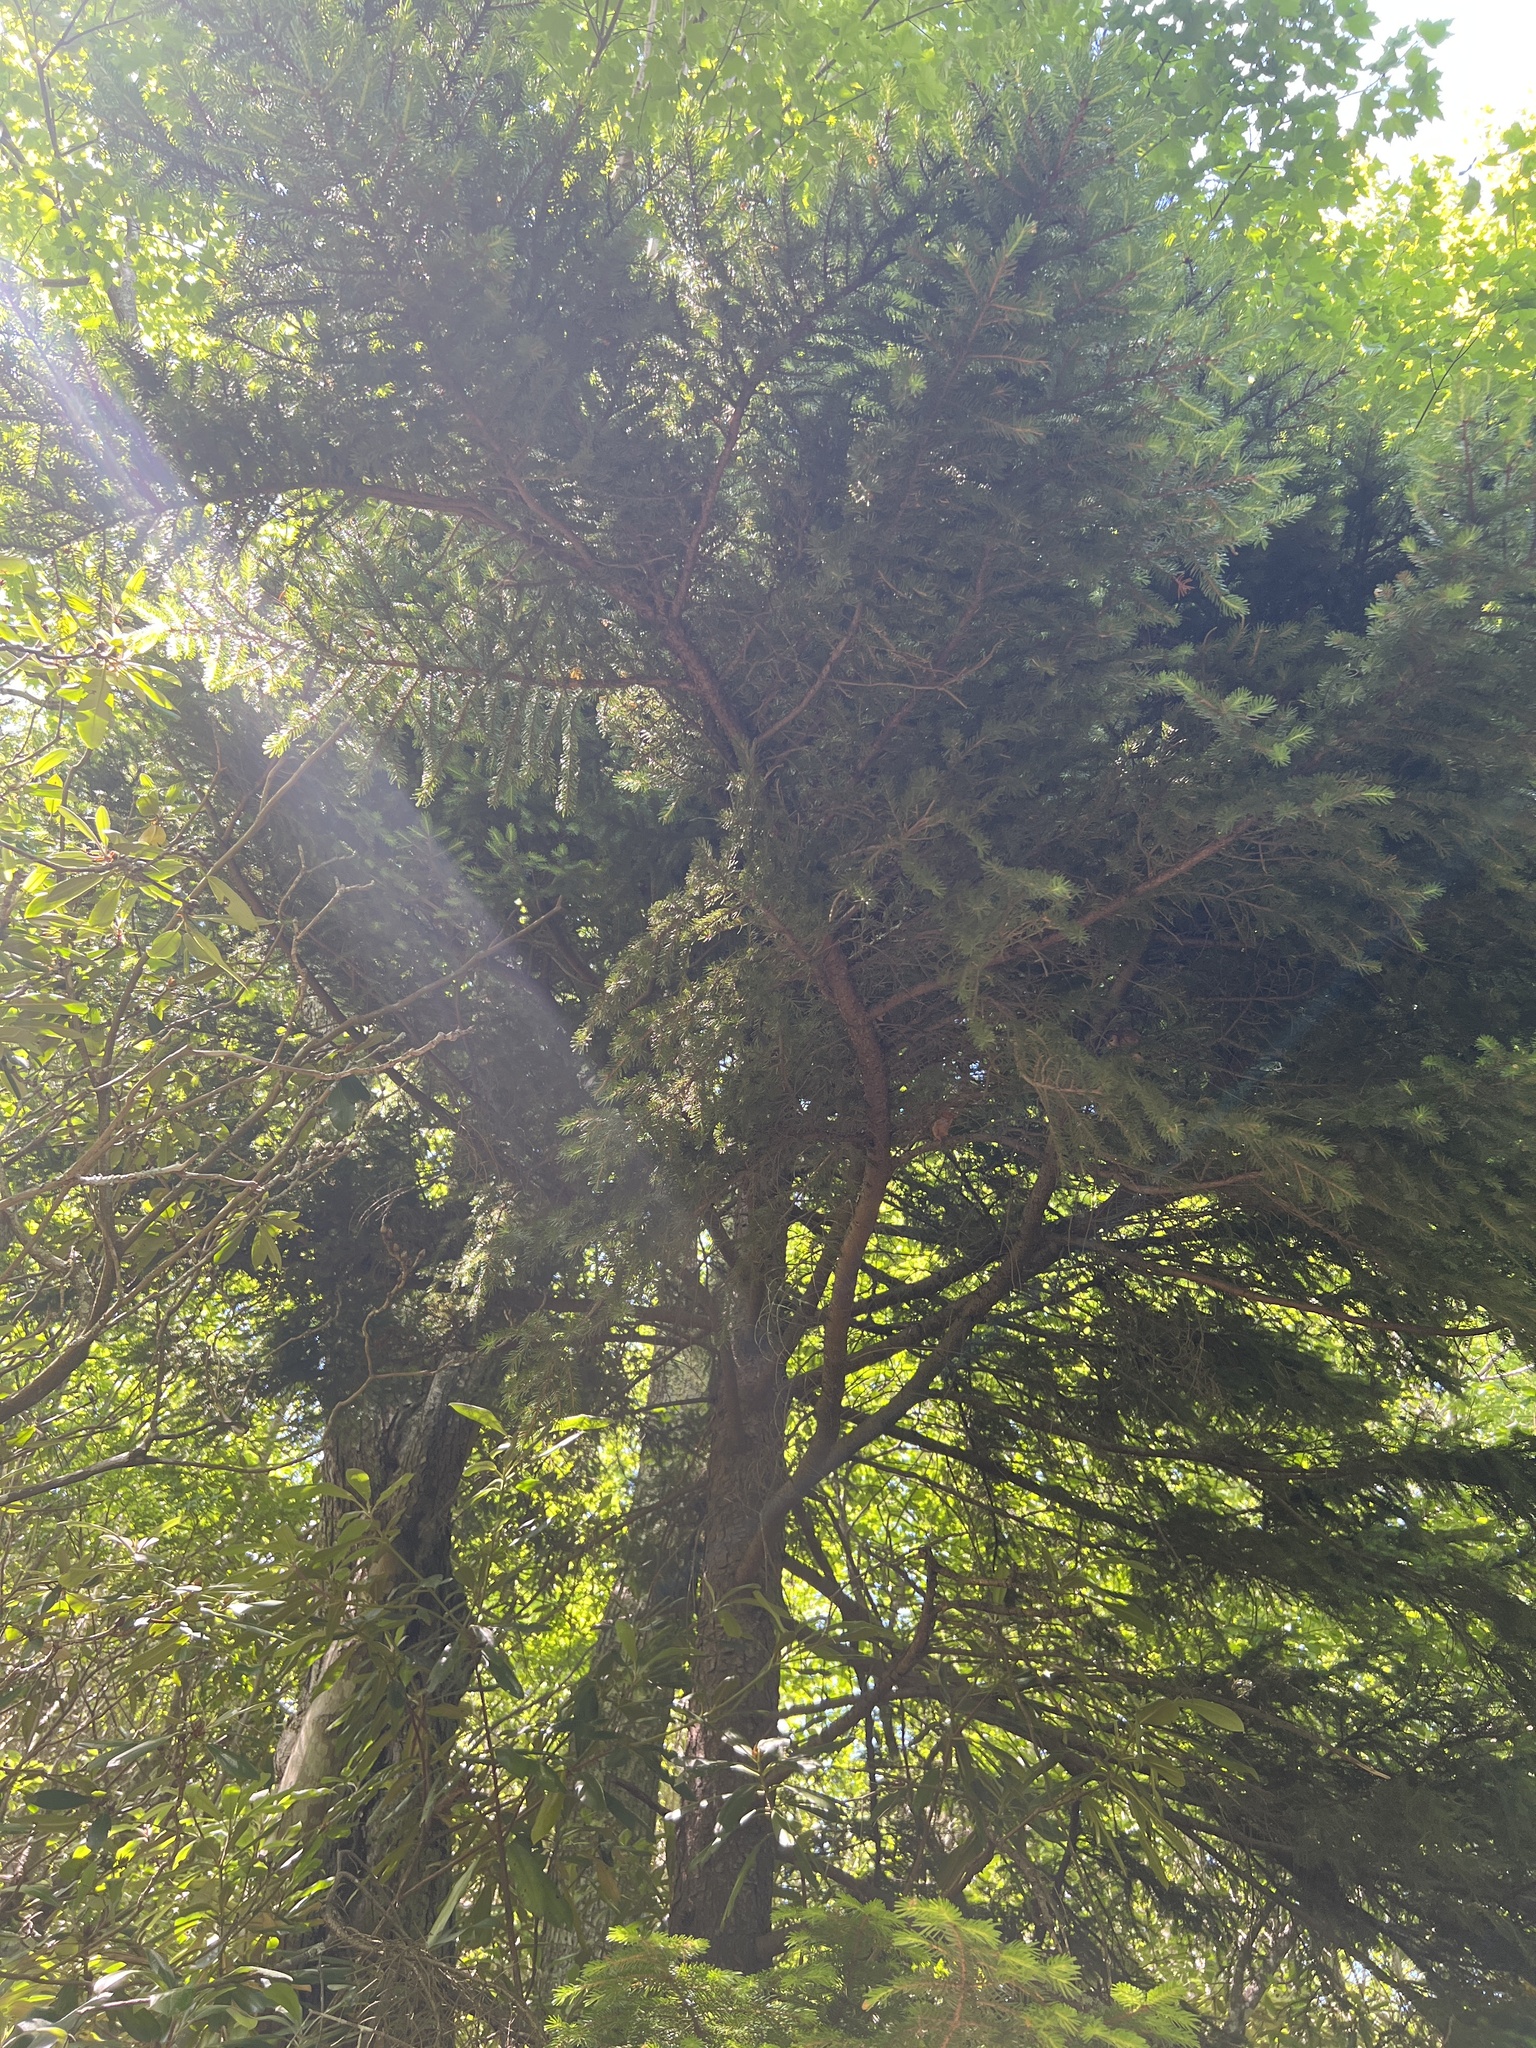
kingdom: Plantae
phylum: Tracheophyta
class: Pinopsida
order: Pinales
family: Pinaceae
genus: Picea
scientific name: Picea rubens
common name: Red spruce
